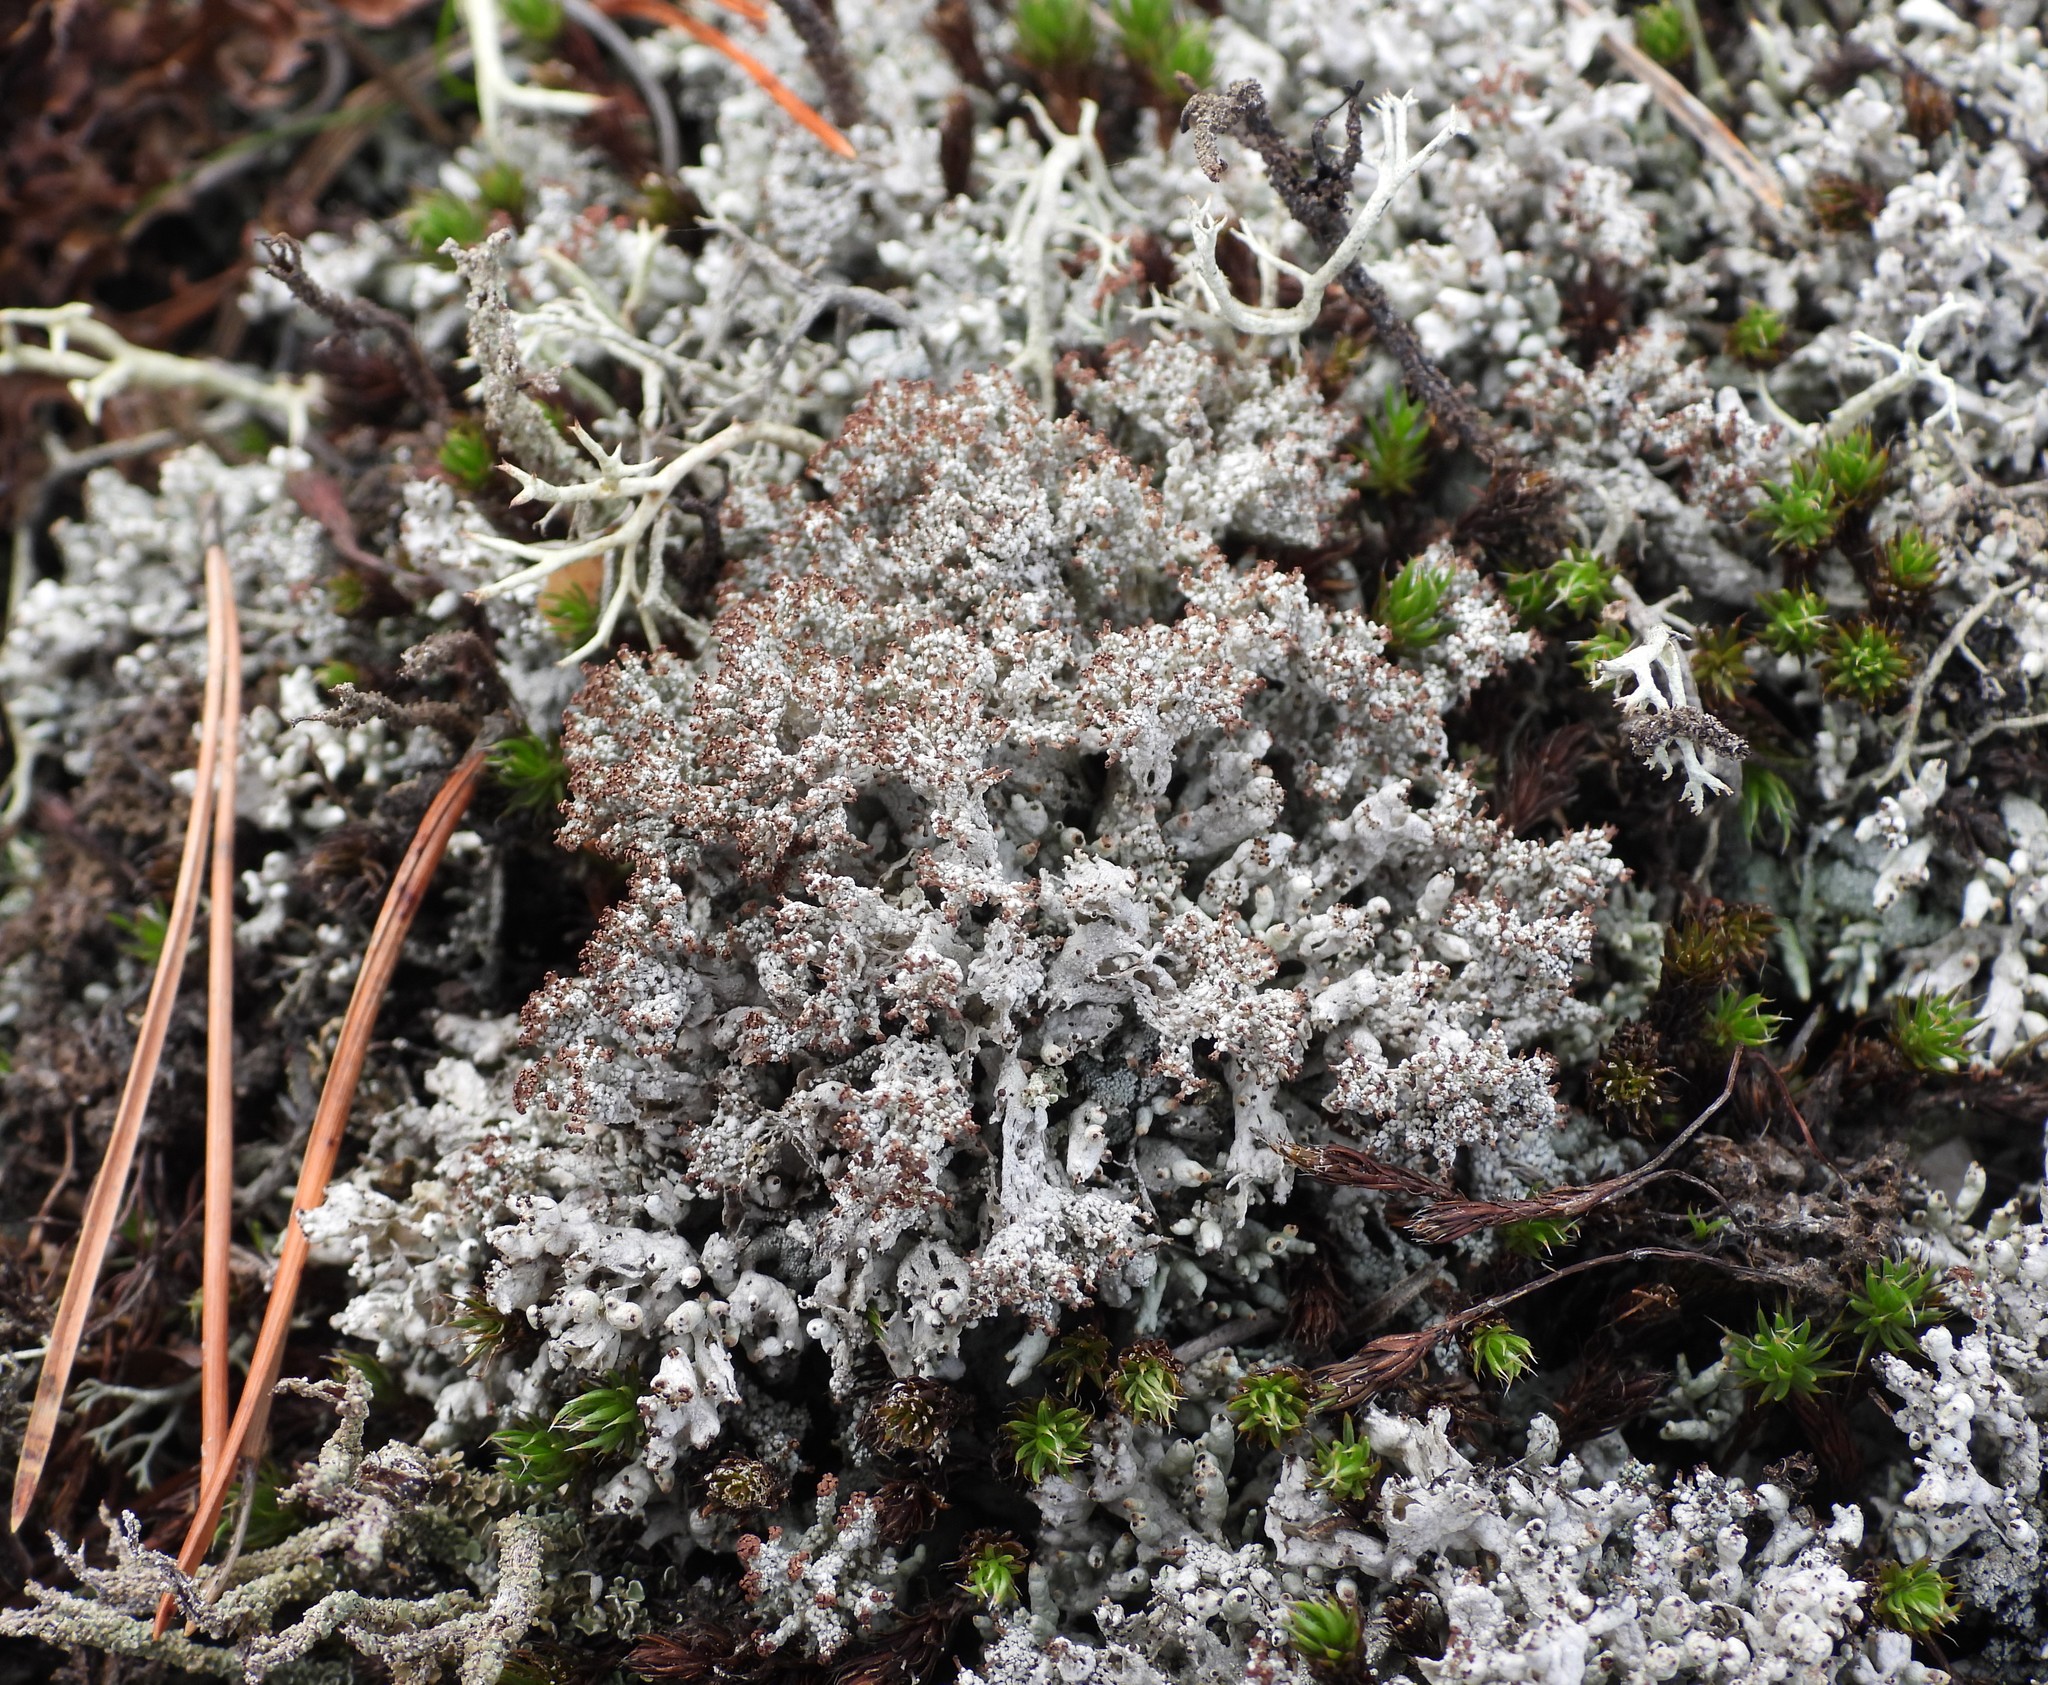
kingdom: Fungi
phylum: Ascomycota
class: Lecanoromycetes
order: Lecanorales
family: Cladoniaceae
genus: Pycnothelia
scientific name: Pycnothelia papillaria
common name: Nipple lichen
